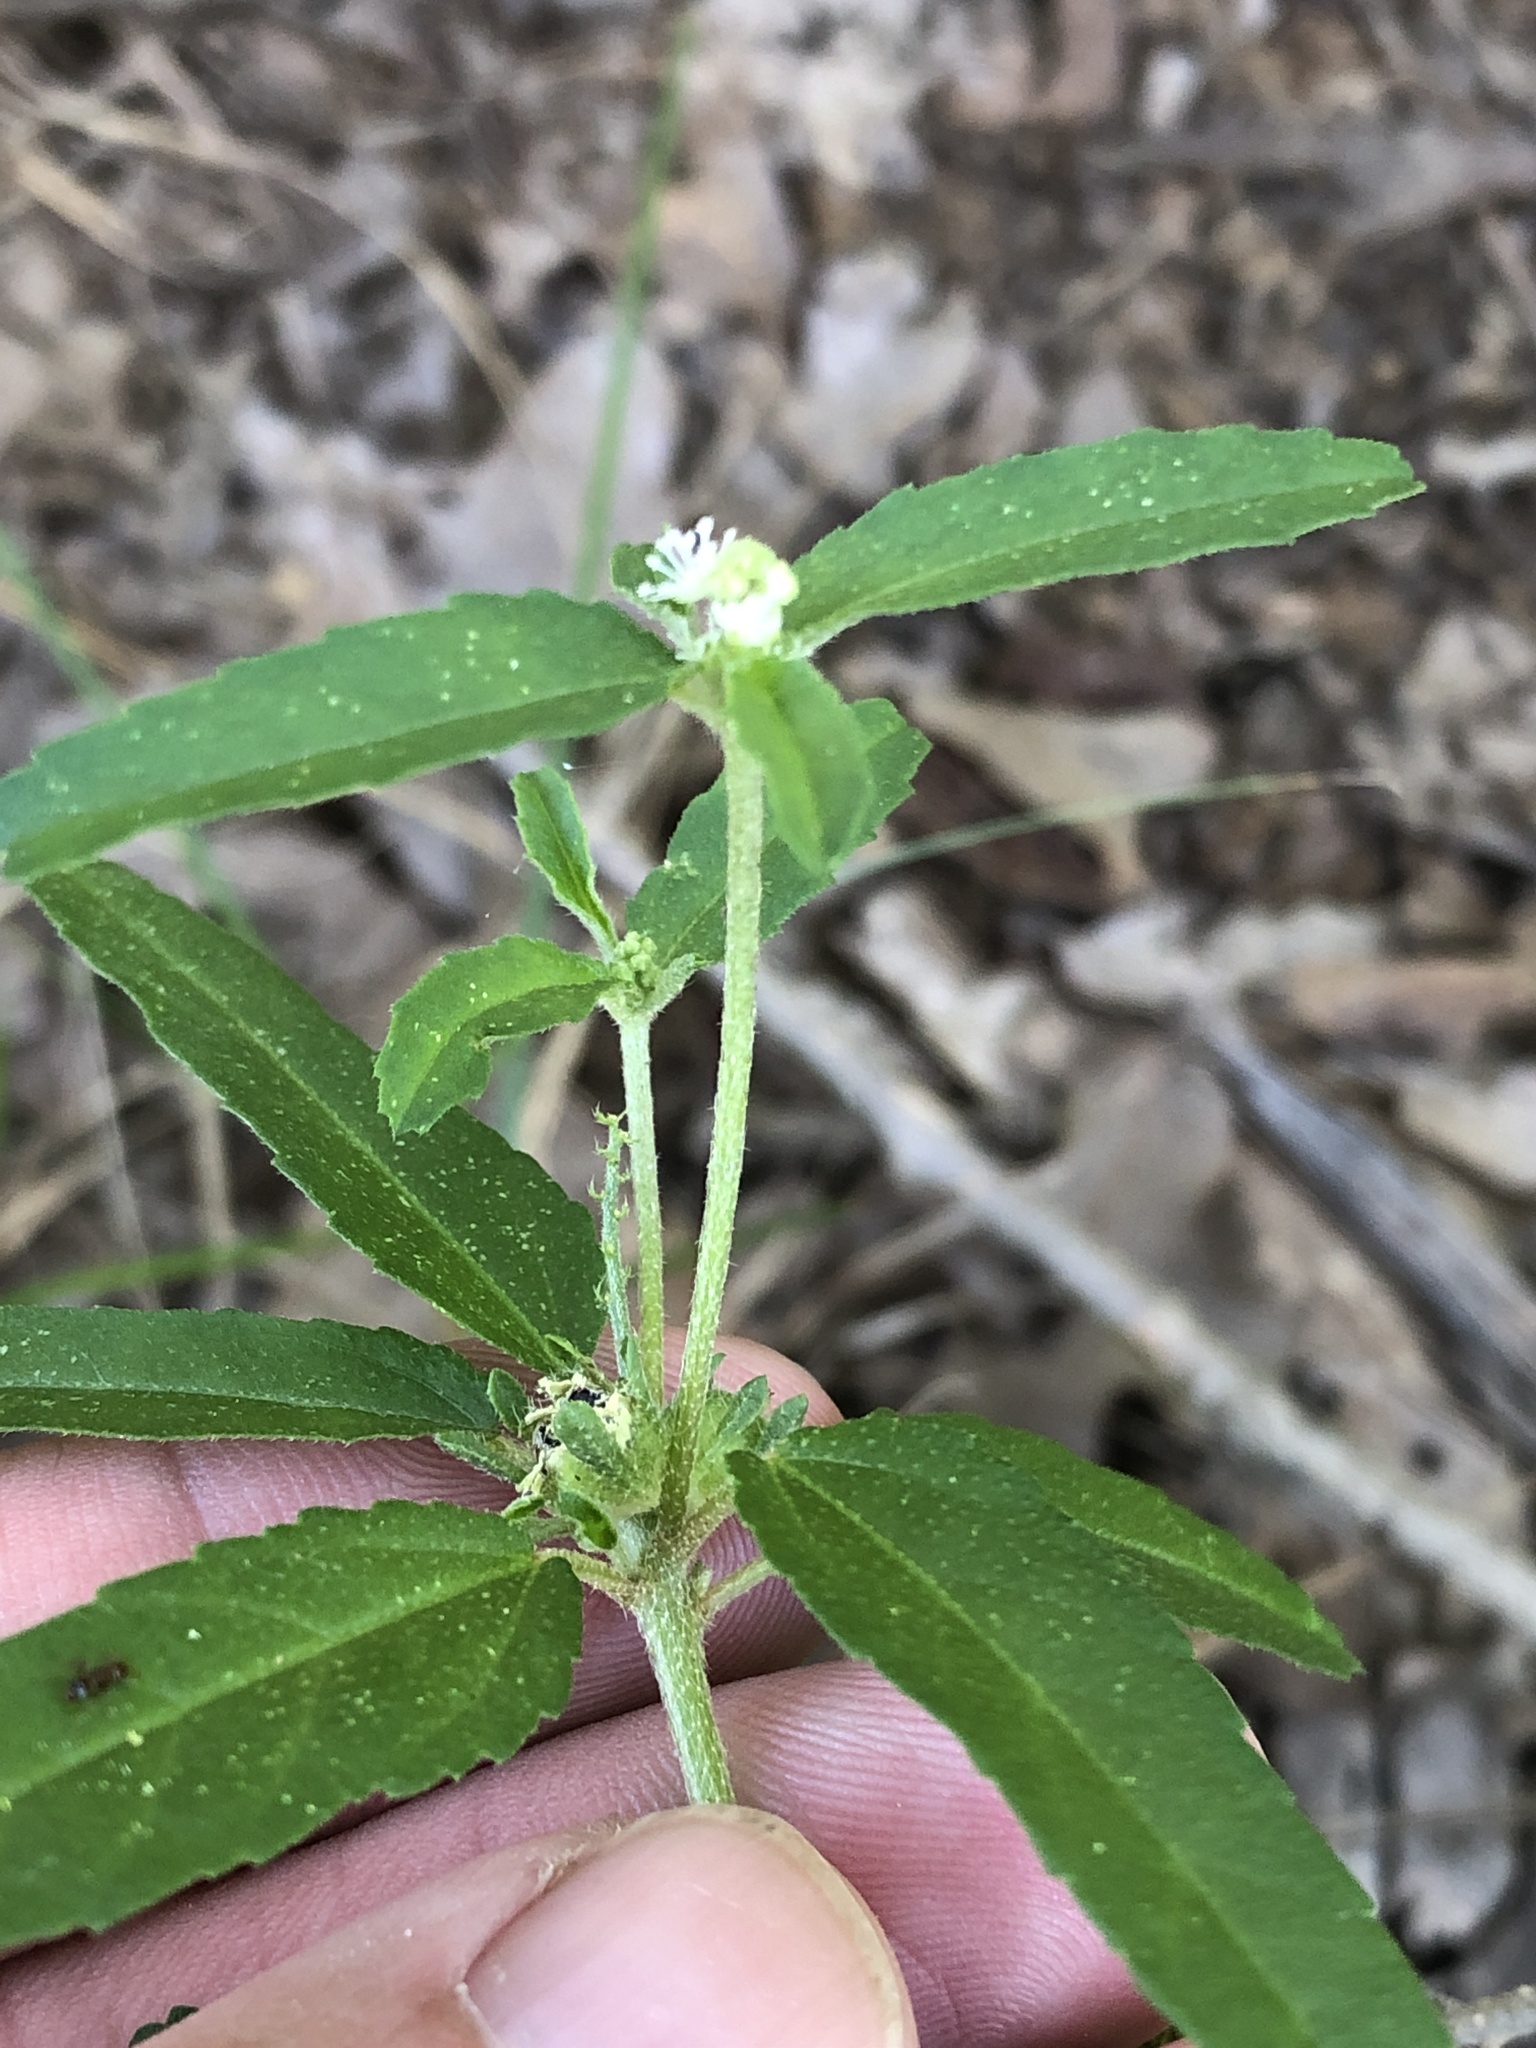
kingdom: Plantae
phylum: Tracheophyta
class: Magnoliopsida
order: Malpighiales
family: Euphorbiaceae
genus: Croton
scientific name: Croton glandulosus
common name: Tropic croton
